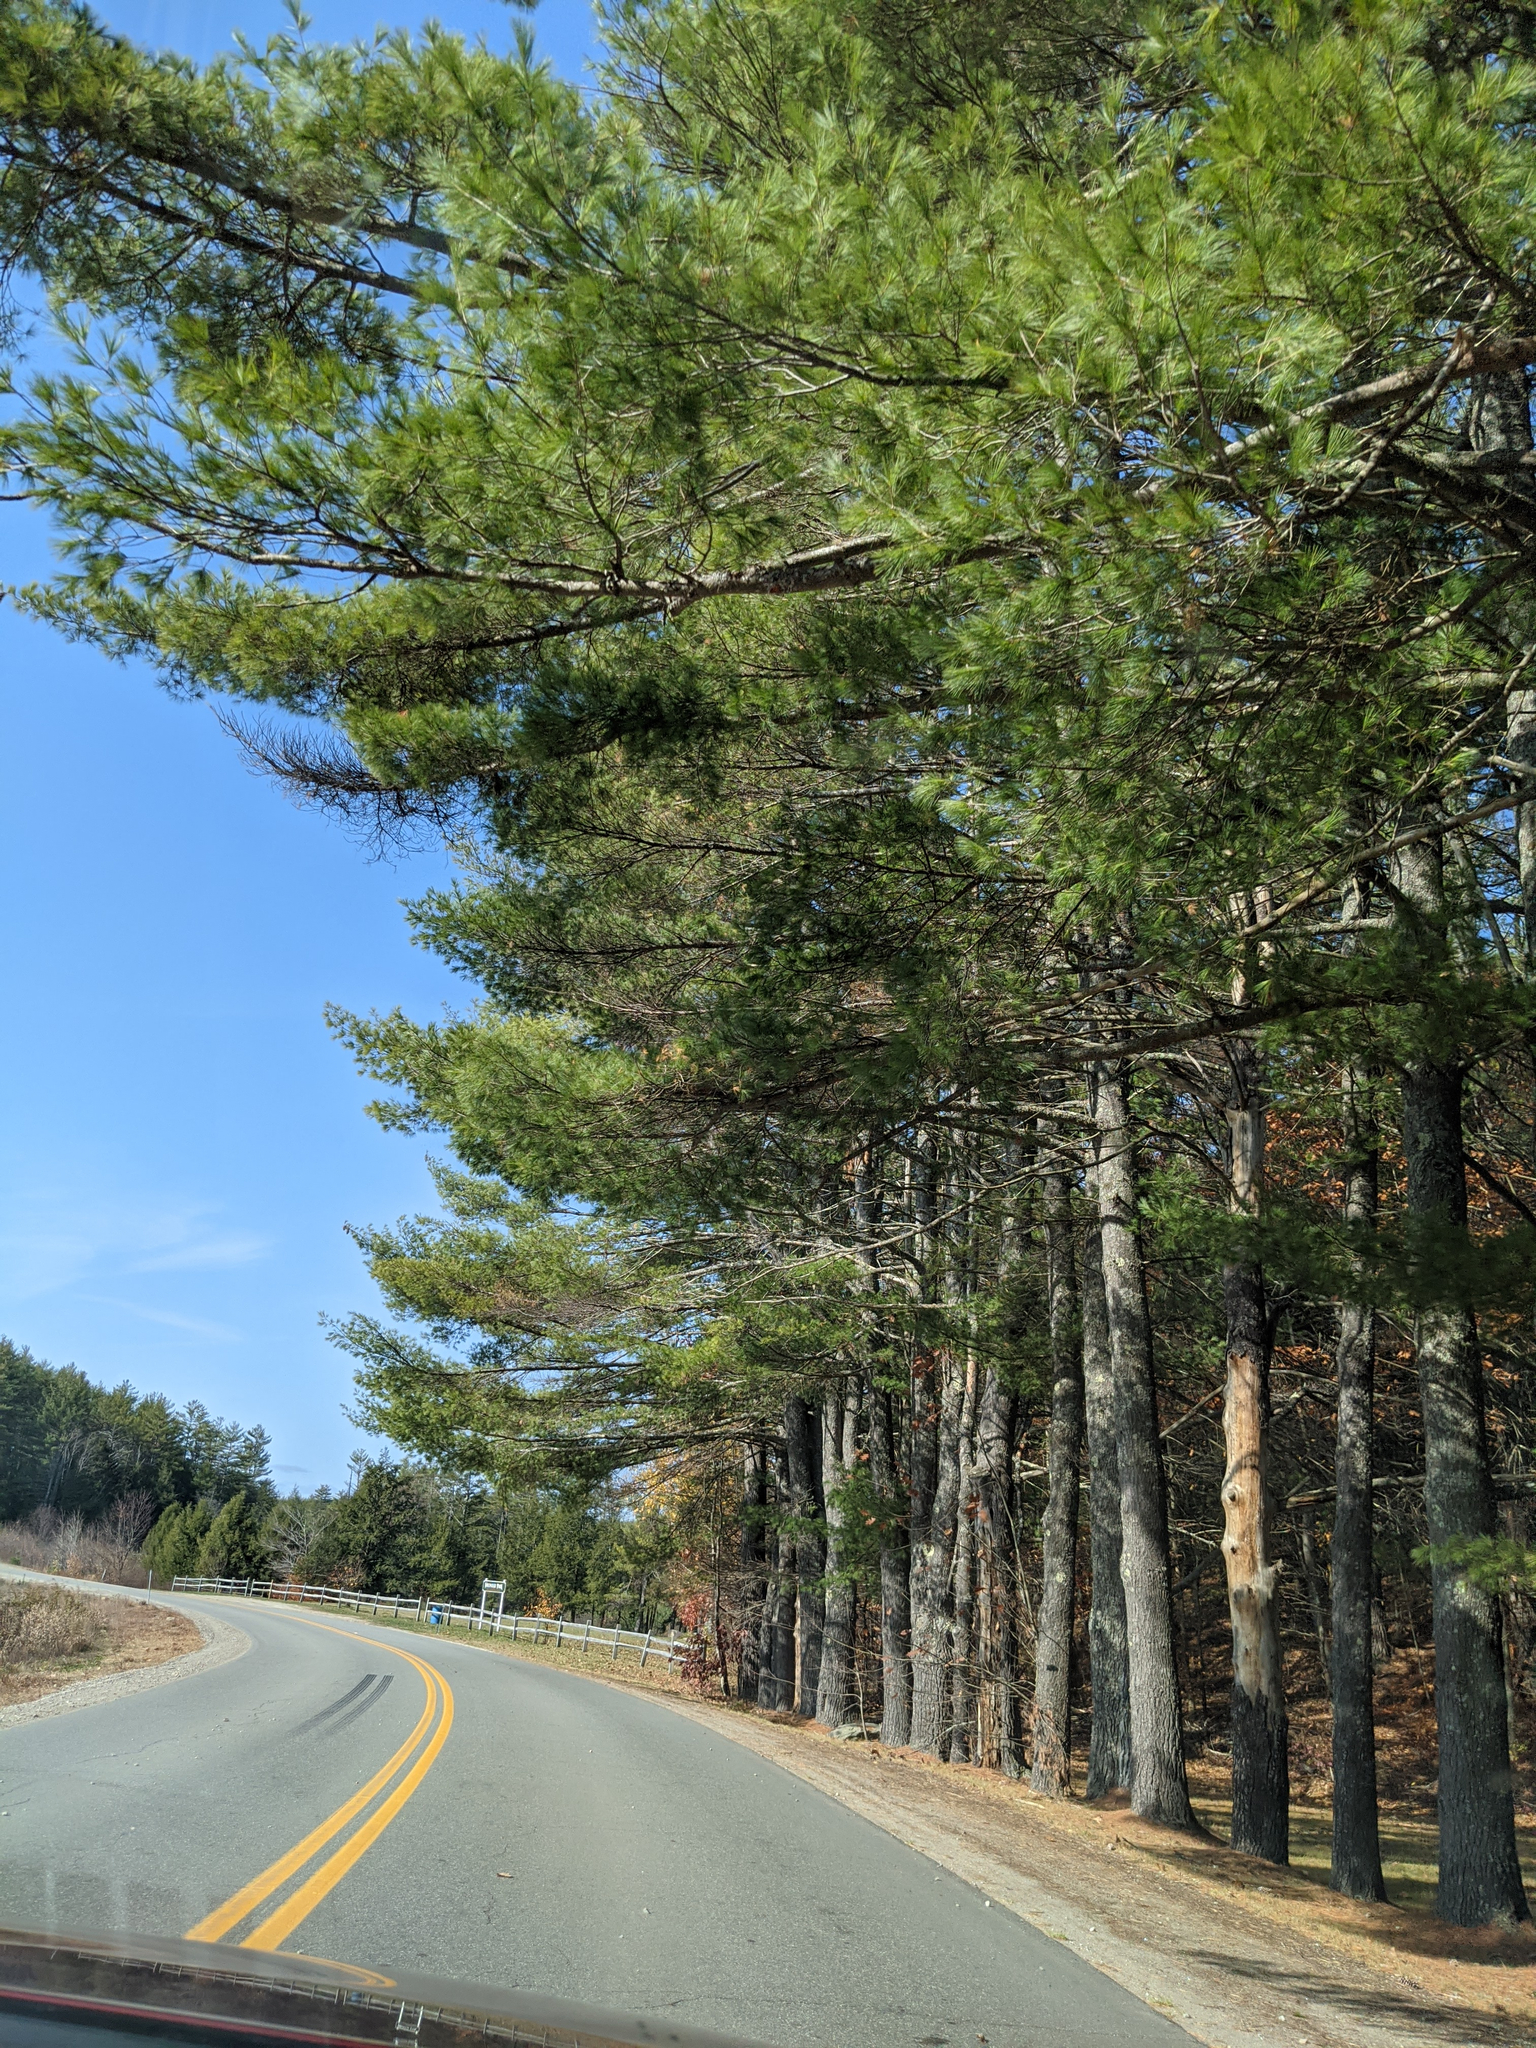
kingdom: Plantae
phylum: Tracheophyta
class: Pinopsida
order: Pinales
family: Pinaceae
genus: Pinus
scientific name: Pinus strobus
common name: Weymouth pine
